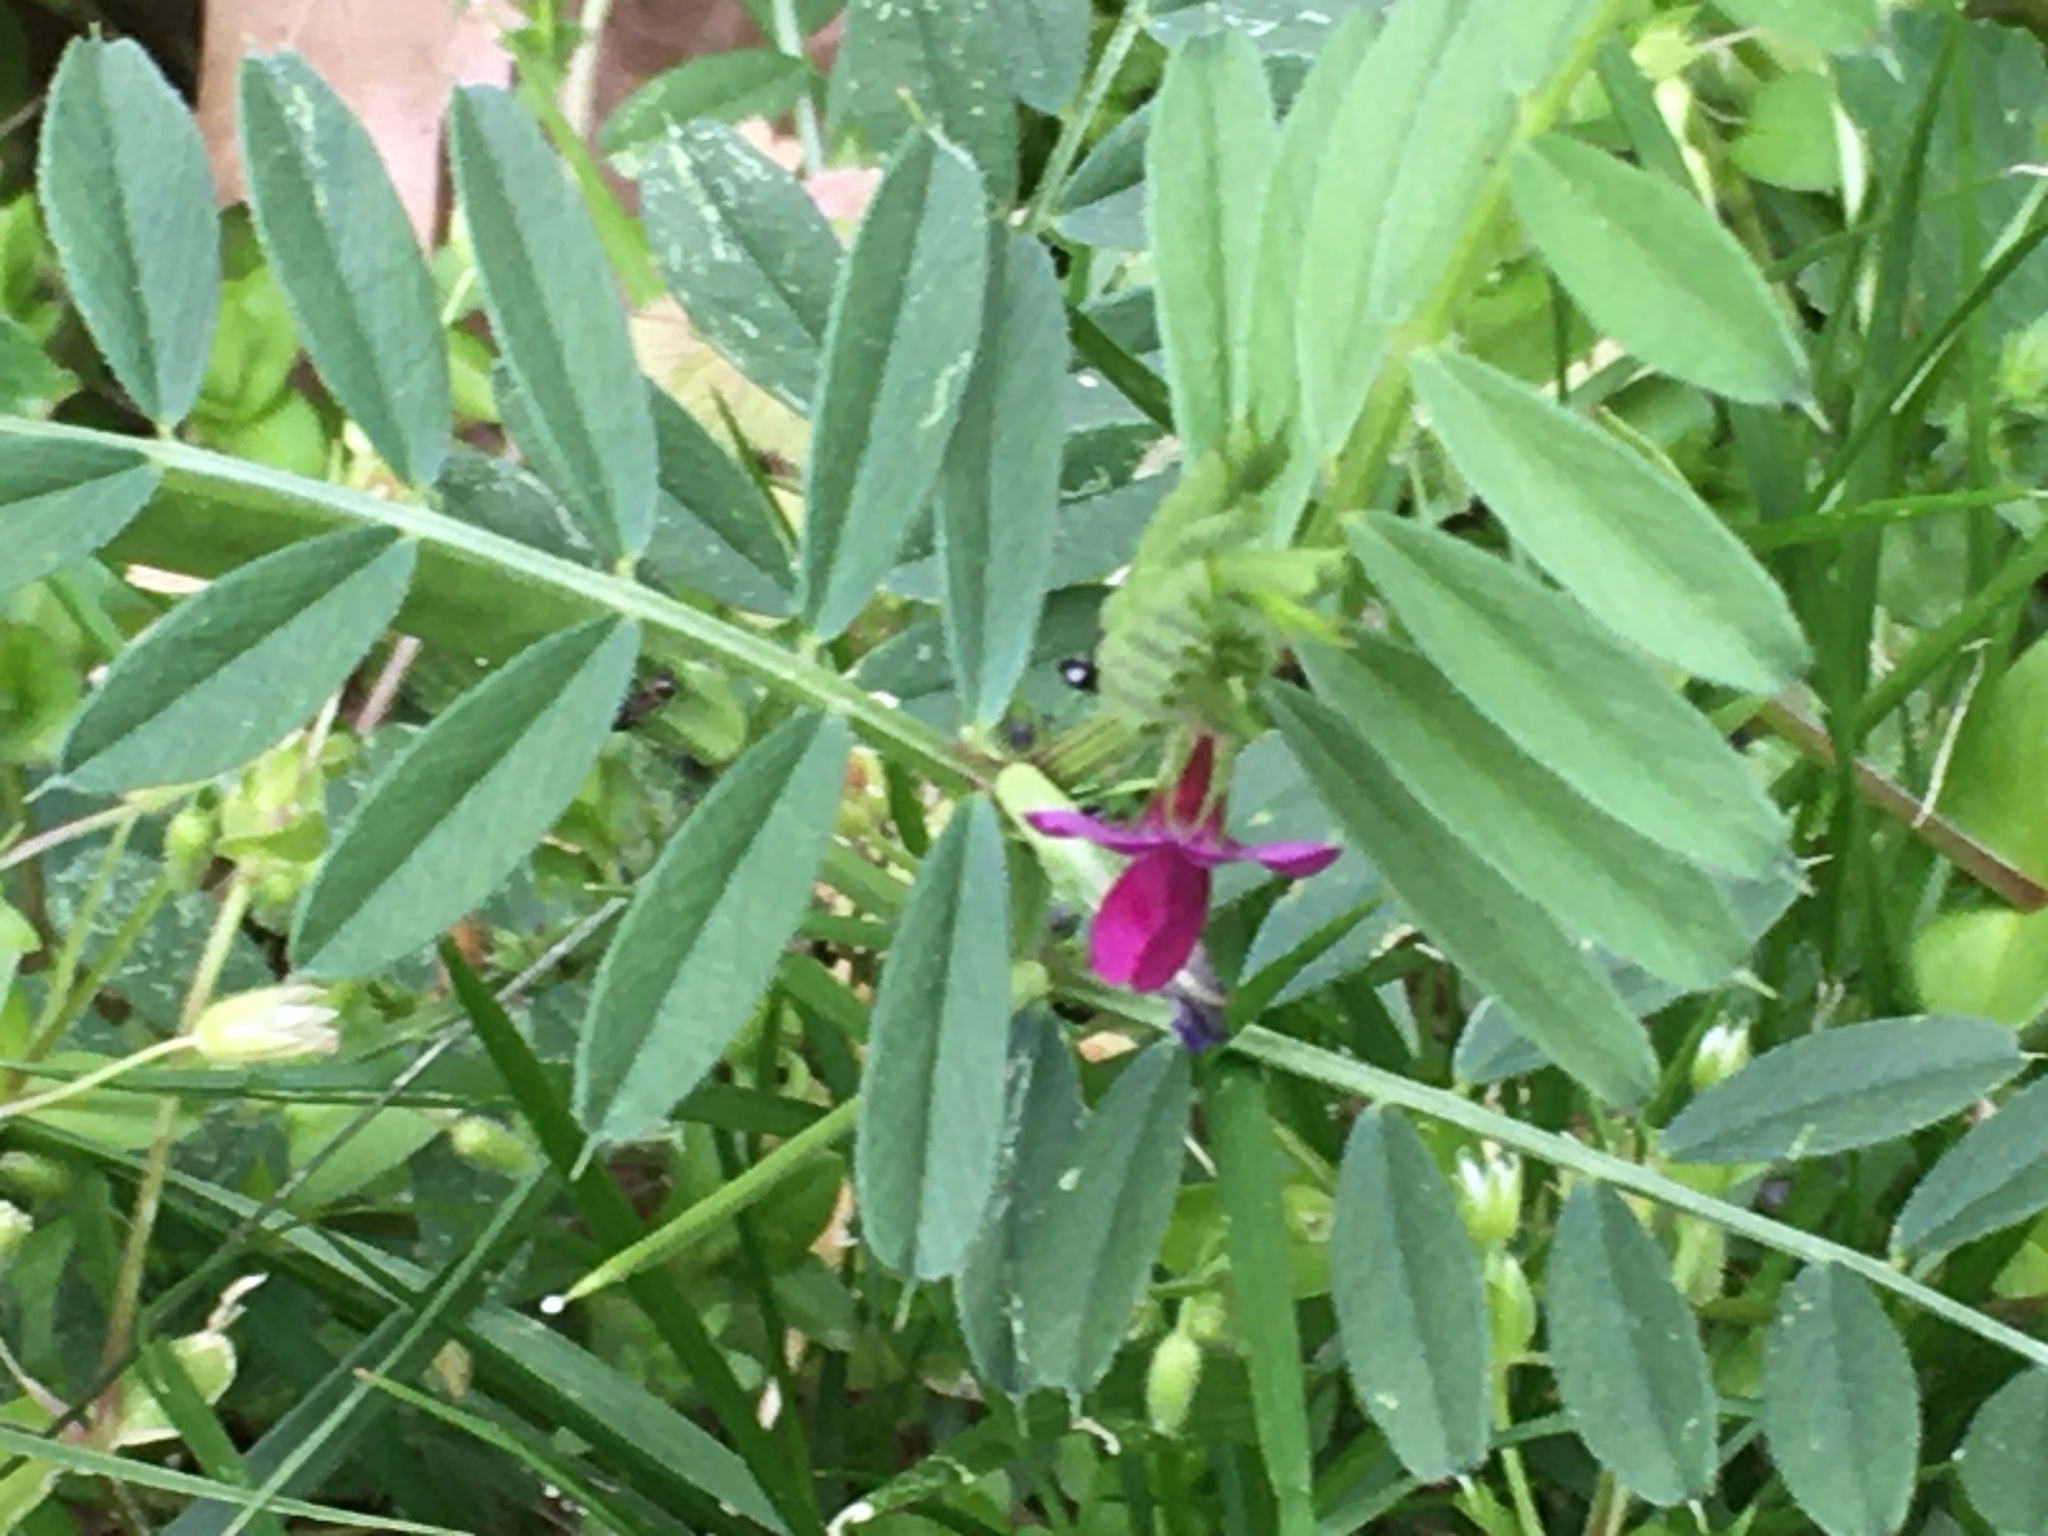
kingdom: Plantae
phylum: Tracheophyta
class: Magnoliopsida
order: Fabales
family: Fabaceae
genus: Vicia
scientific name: Vicia sativa
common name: Garden vetch
